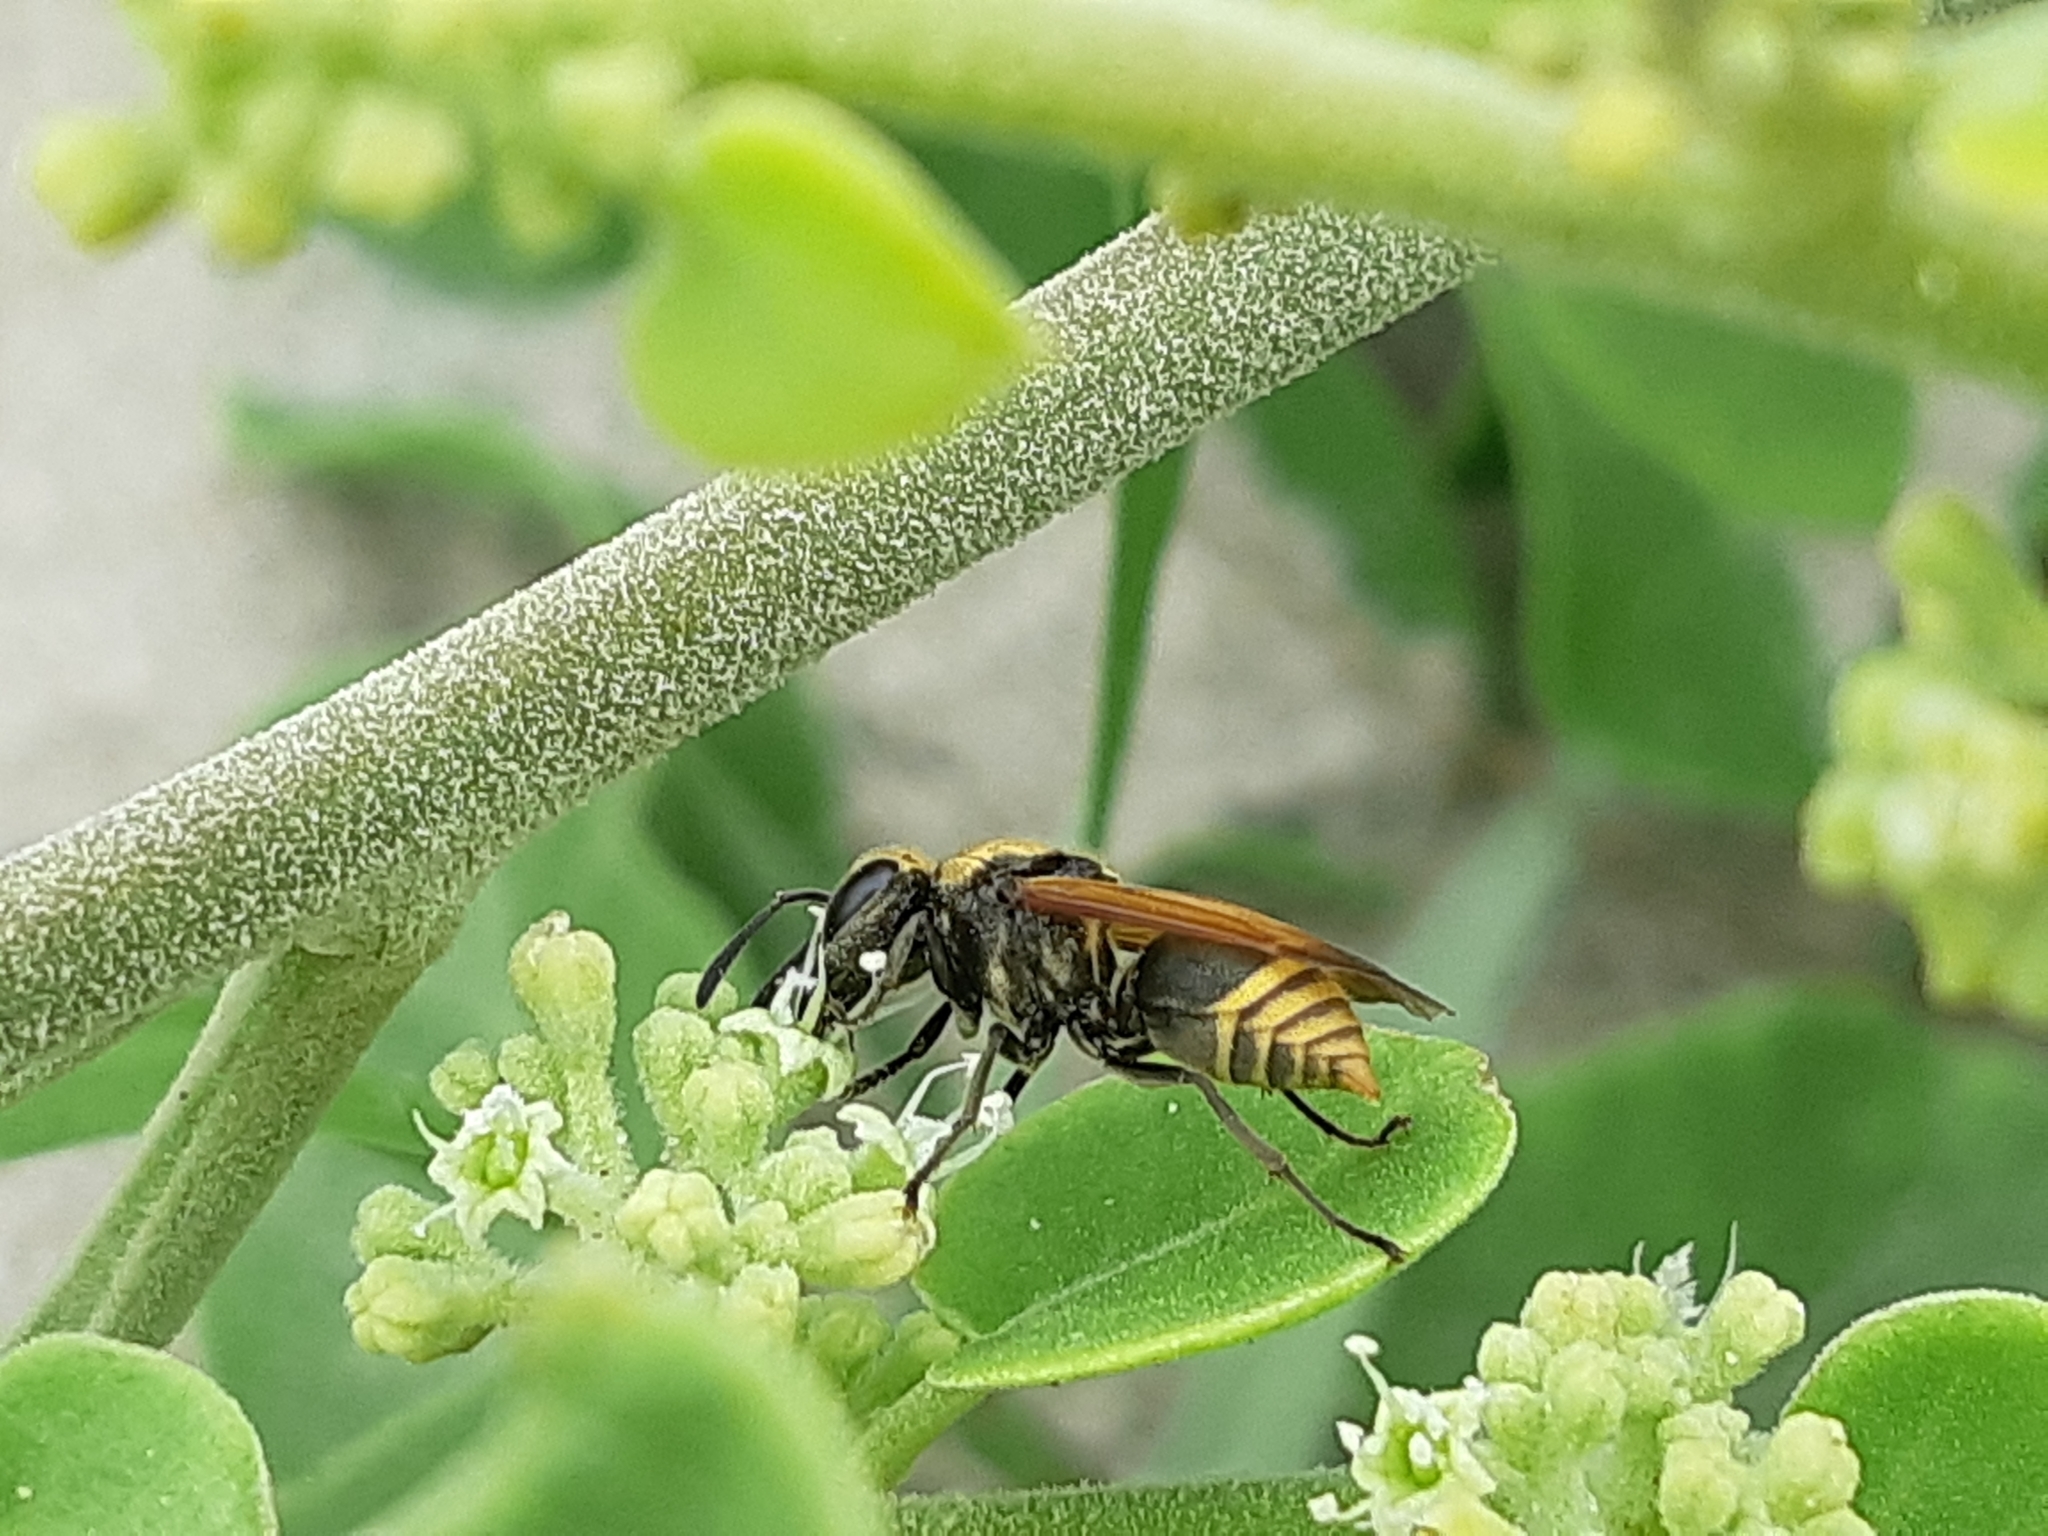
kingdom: Animalia
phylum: Arthropoda
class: Insecta
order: Hymenoptera
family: Vespidae
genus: Brachygastra
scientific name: Brachygastra lecheguana
